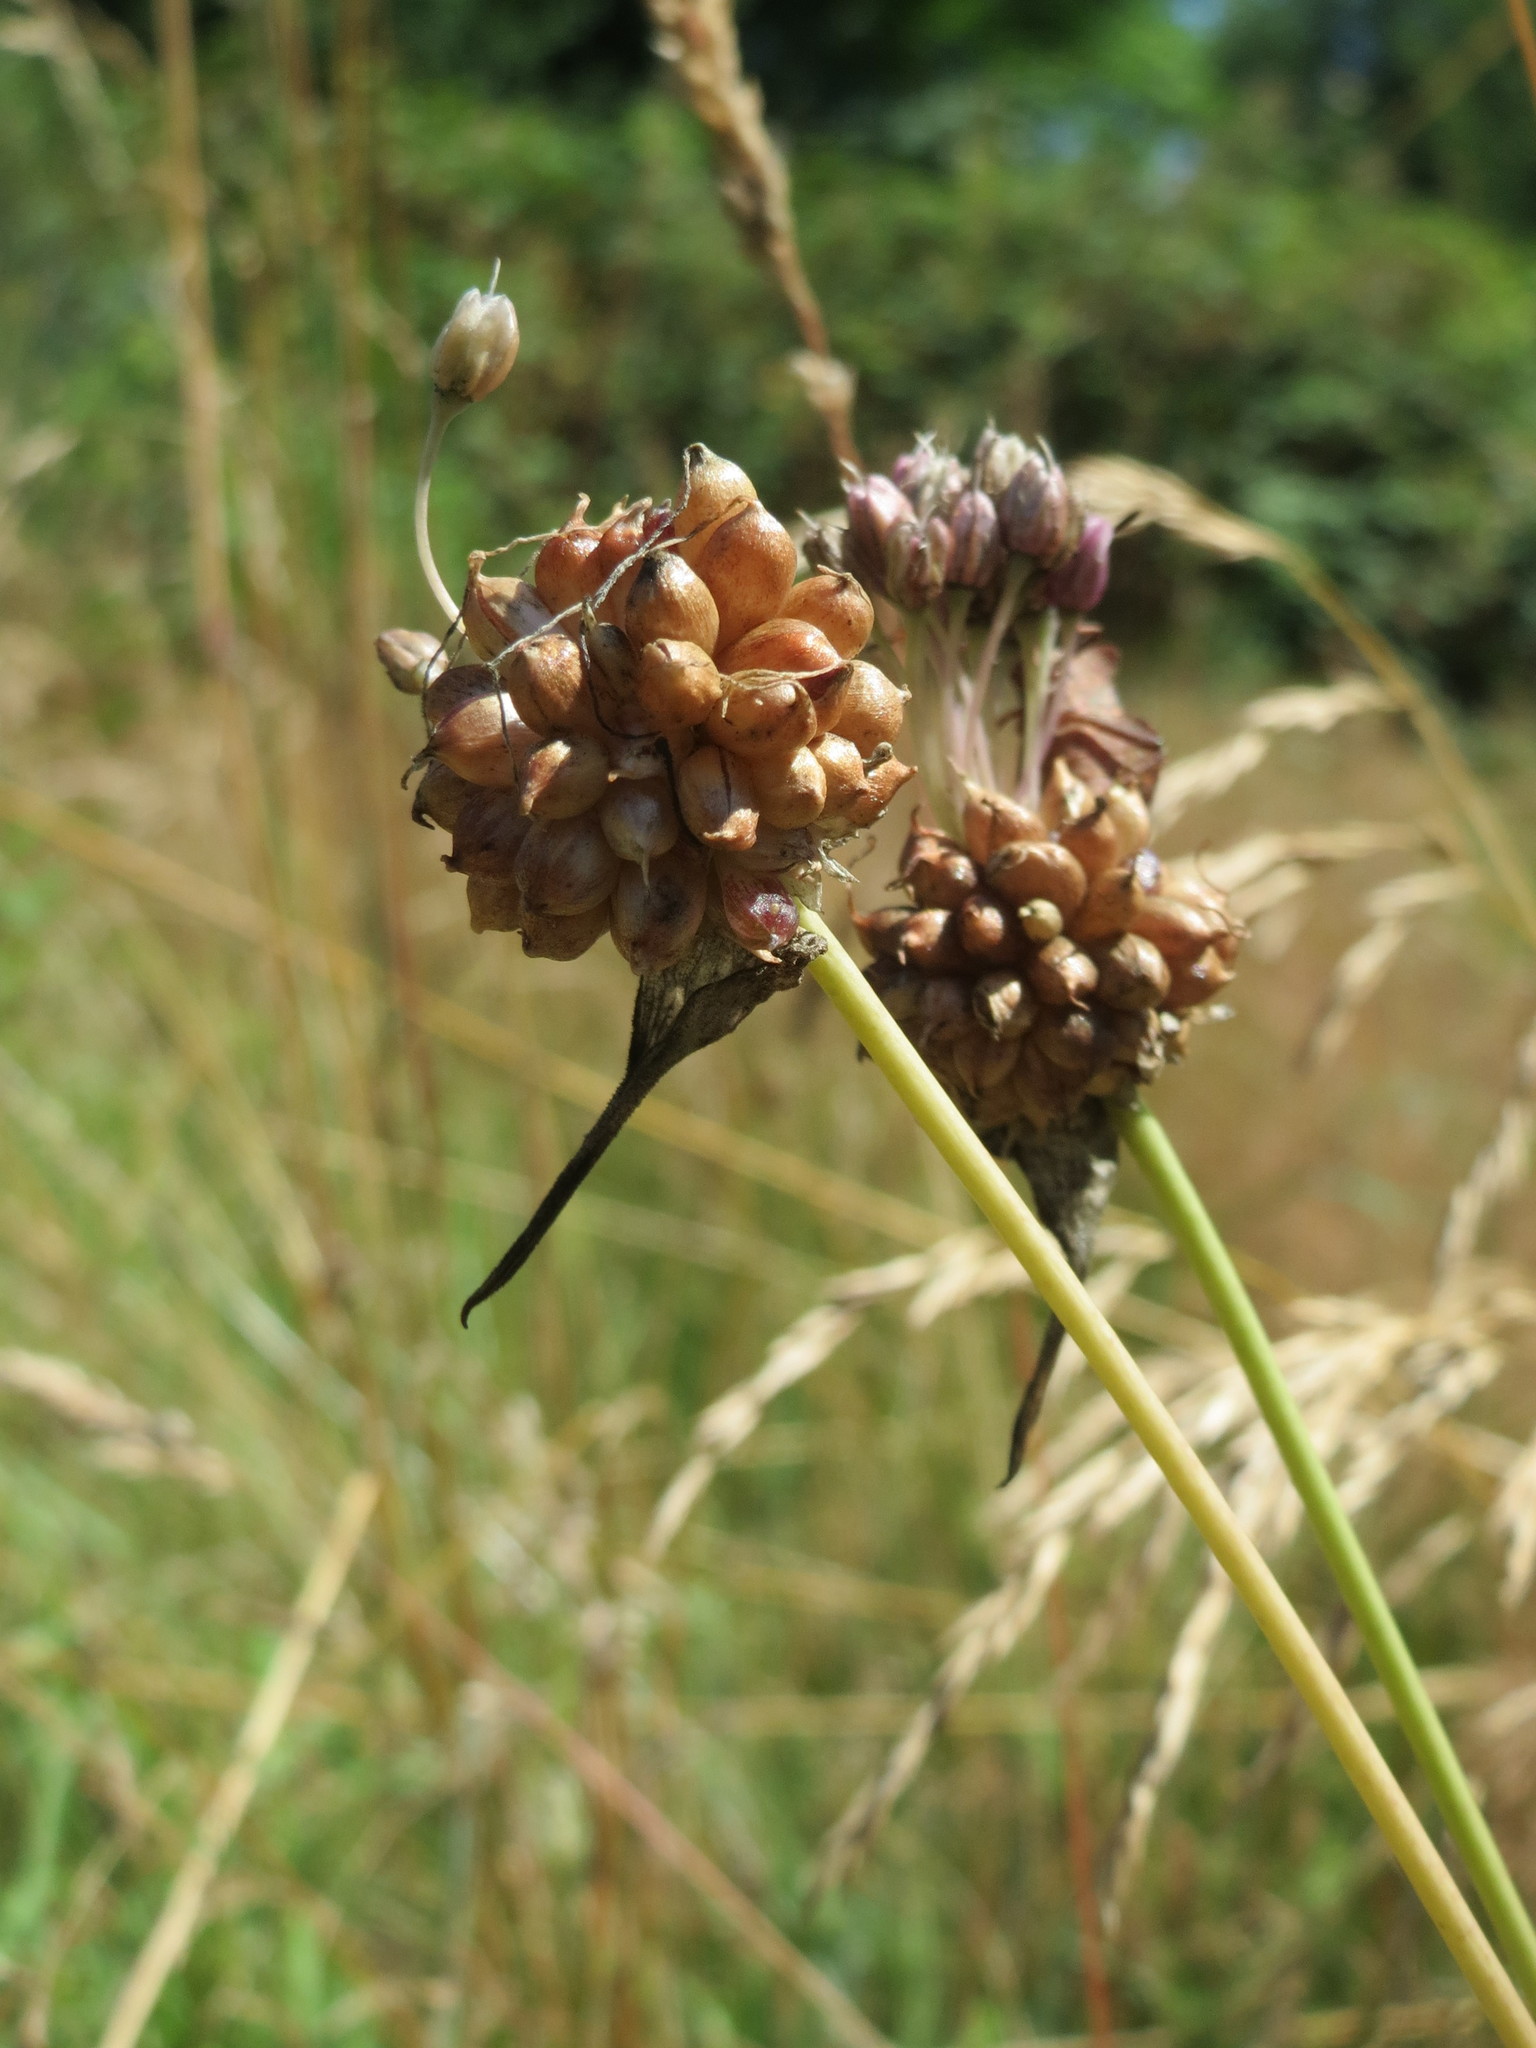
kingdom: Plantae
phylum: Tracheophyta
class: Liliopsida
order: Asparagales
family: Amaryllidaceae
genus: Allium
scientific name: Allium vineale
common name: Crow garlic
